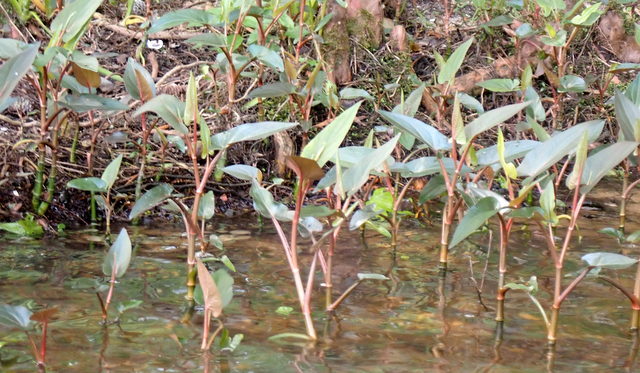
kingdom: Plantae
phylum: Tracheophyta
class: Magnoliopsida
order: Piperales
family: Saururaceae
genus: Saururus
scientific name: Saururus cernuus
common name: Lizard's-tail
